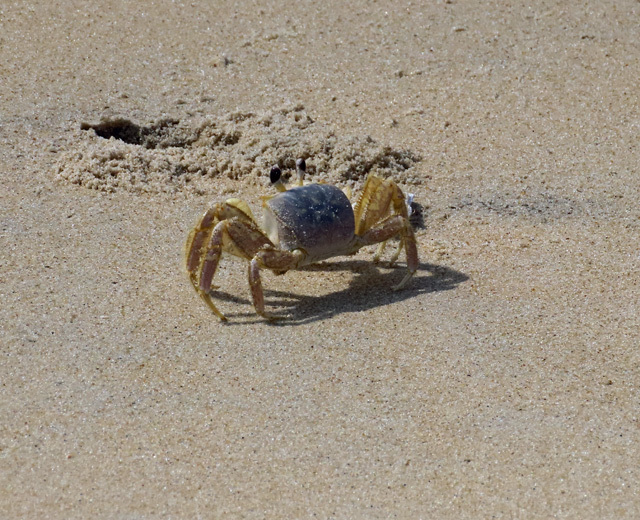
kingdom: Animalia
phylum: Arthropoda
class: Malacostraca
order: Decapoda
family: Ocypodidae
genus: Ocypode
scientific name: Ocypode quadrata
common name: Ghost crab
